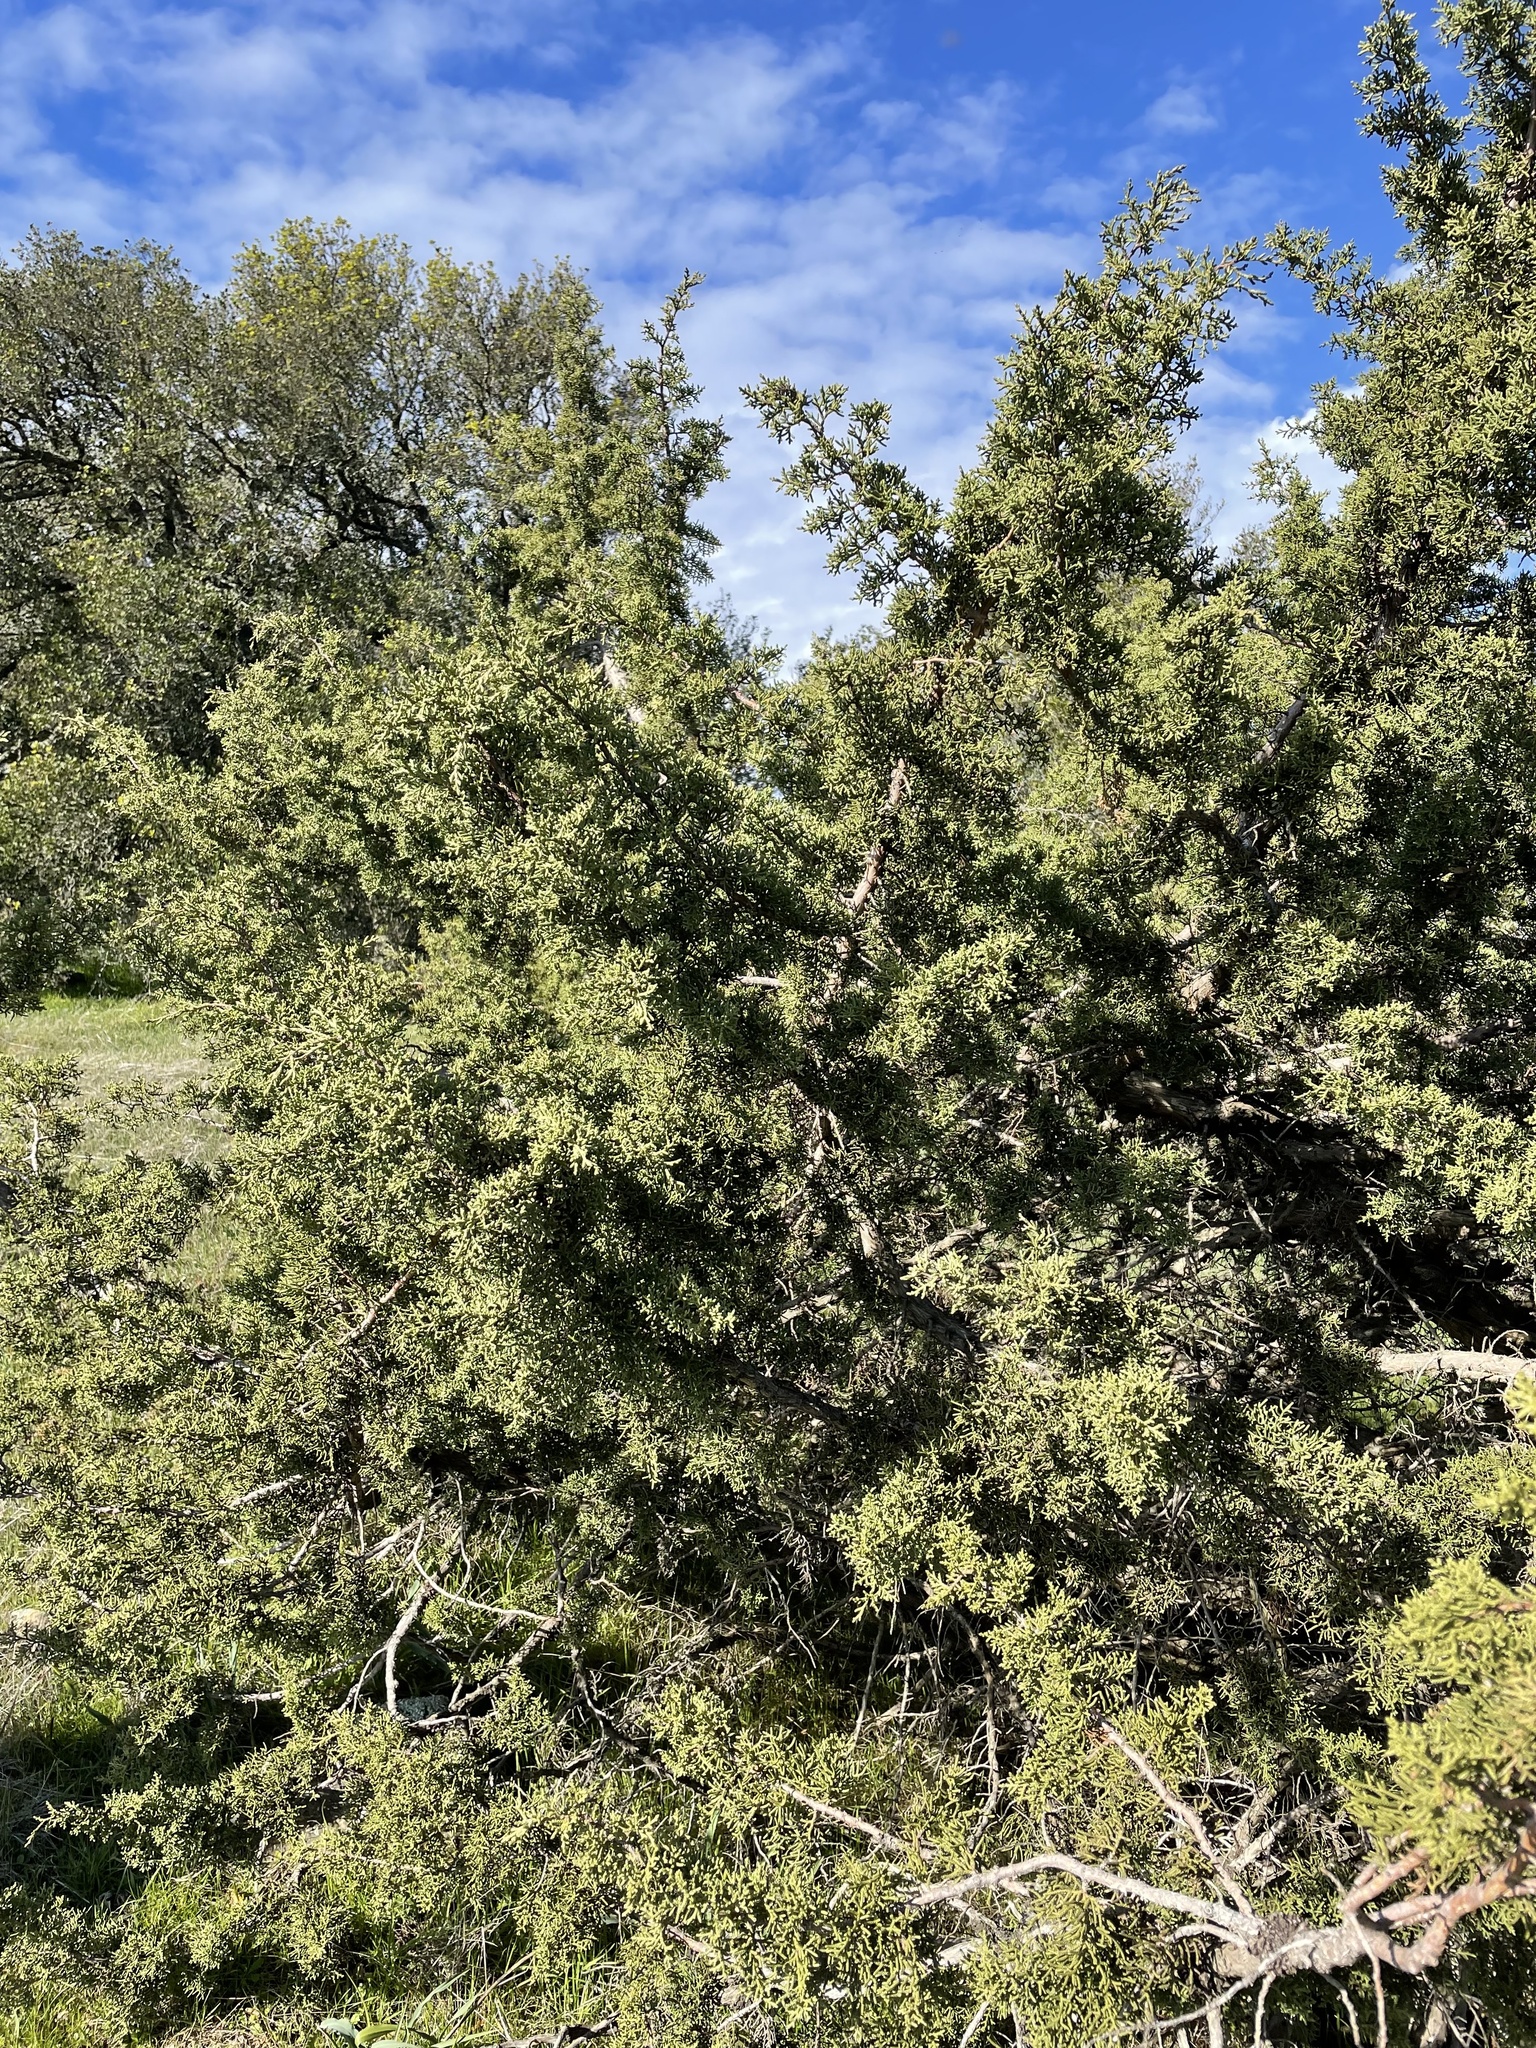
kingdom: Plantae
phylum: Tracheophyta
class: Pinopsida
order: Pinales
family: Cupressaceae
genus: Juniperus
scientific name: Juniperus californica
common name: California juniper
